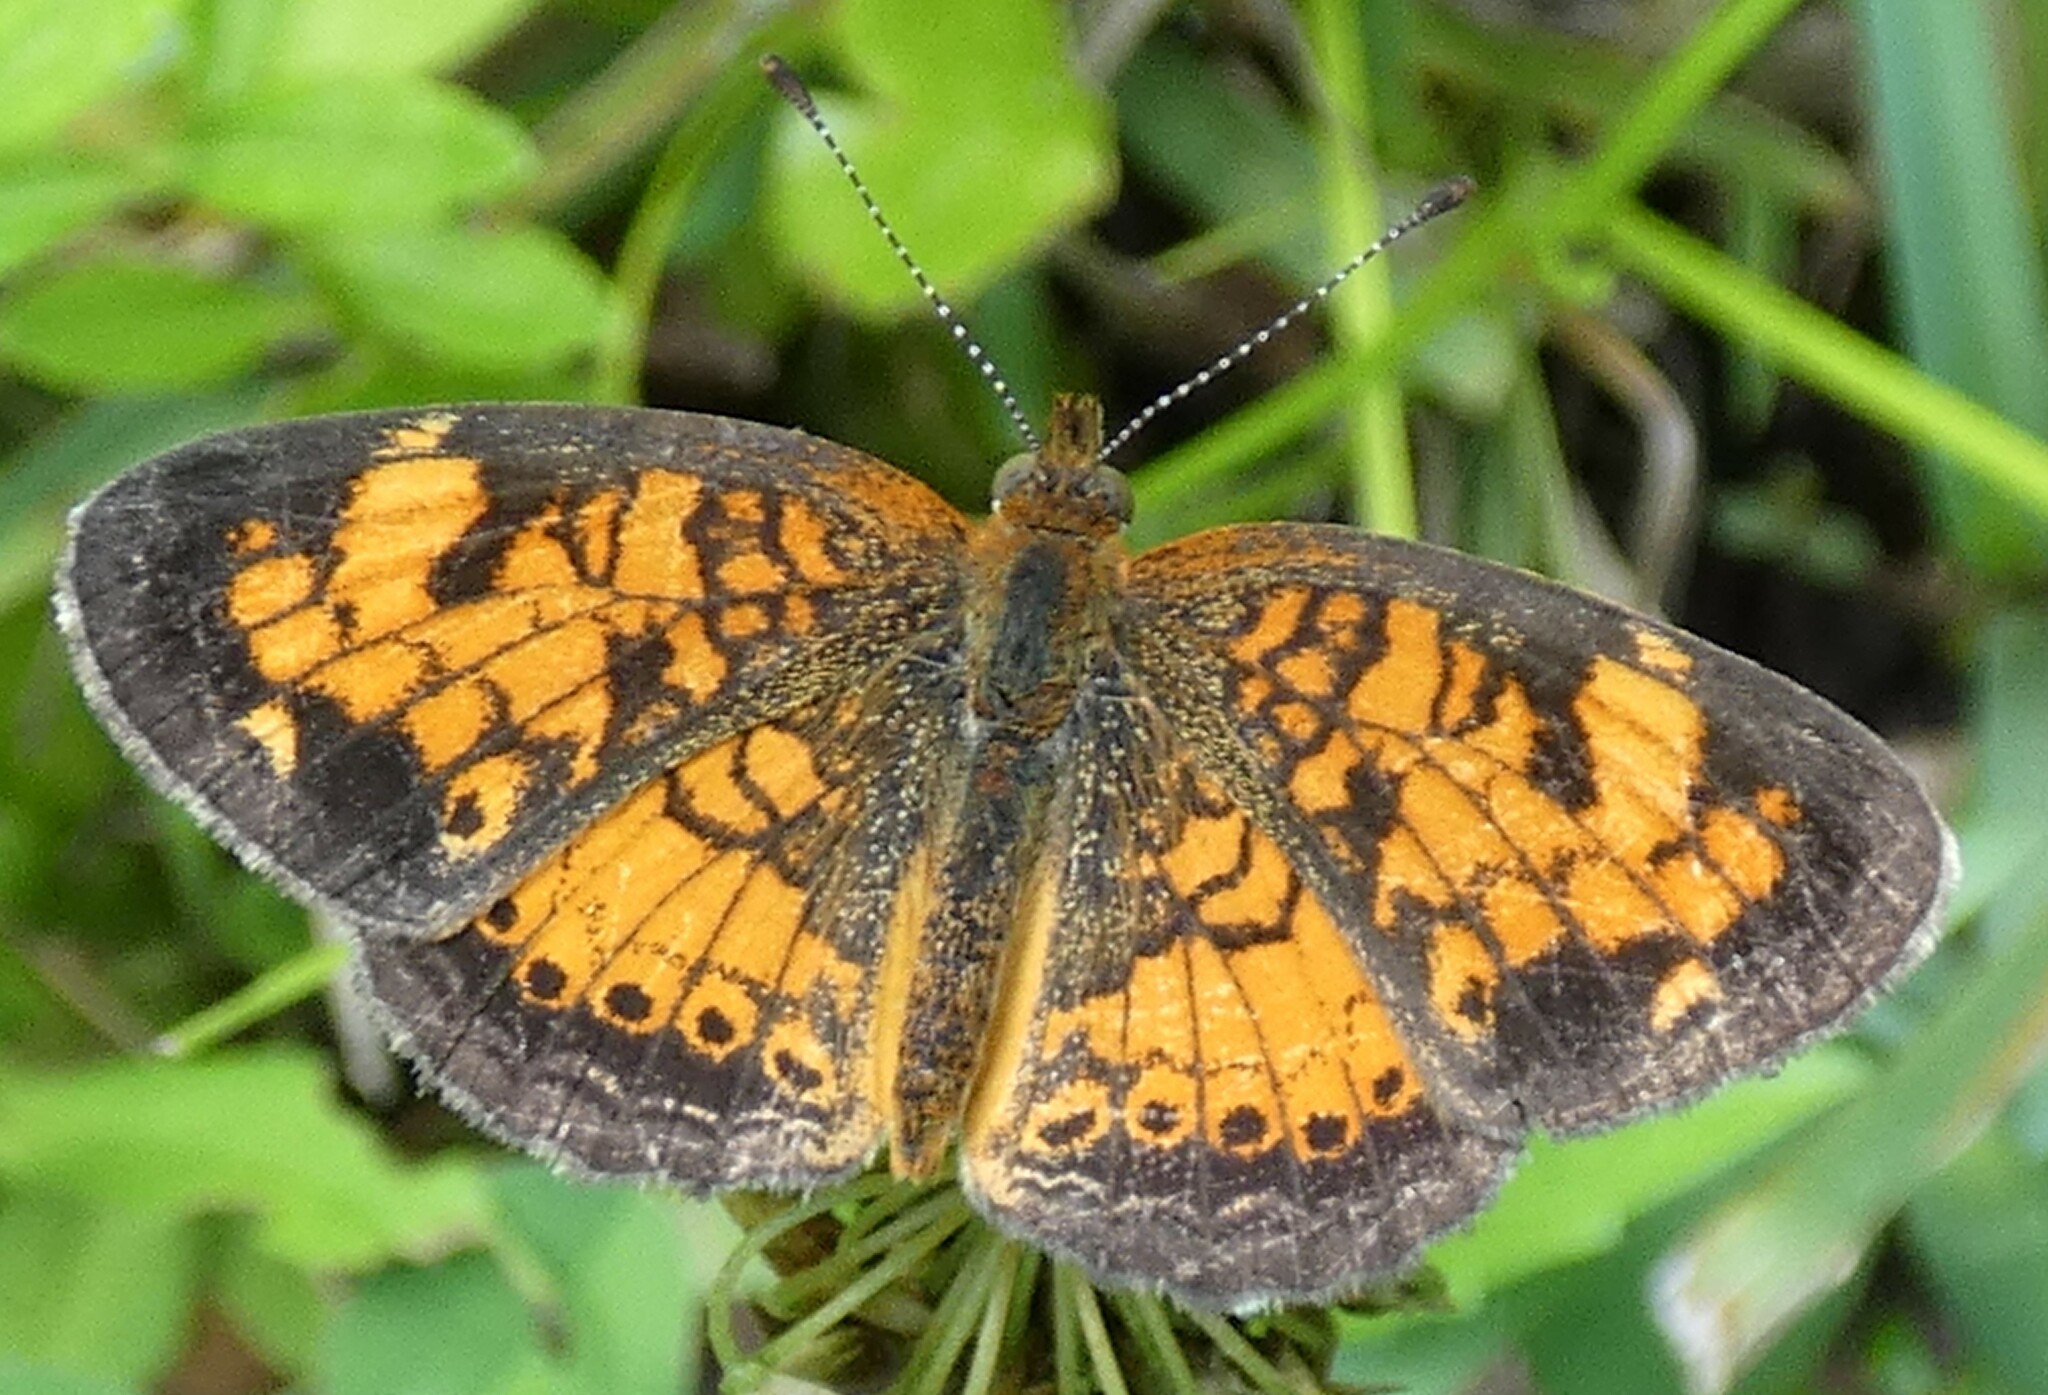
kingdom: Animalia
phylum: Arthropoda
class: Insecta
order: Lepidoptera
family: Nymphalidae
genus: Phyciodes
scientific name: Phyciodes tharos
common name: Pearl crescent
